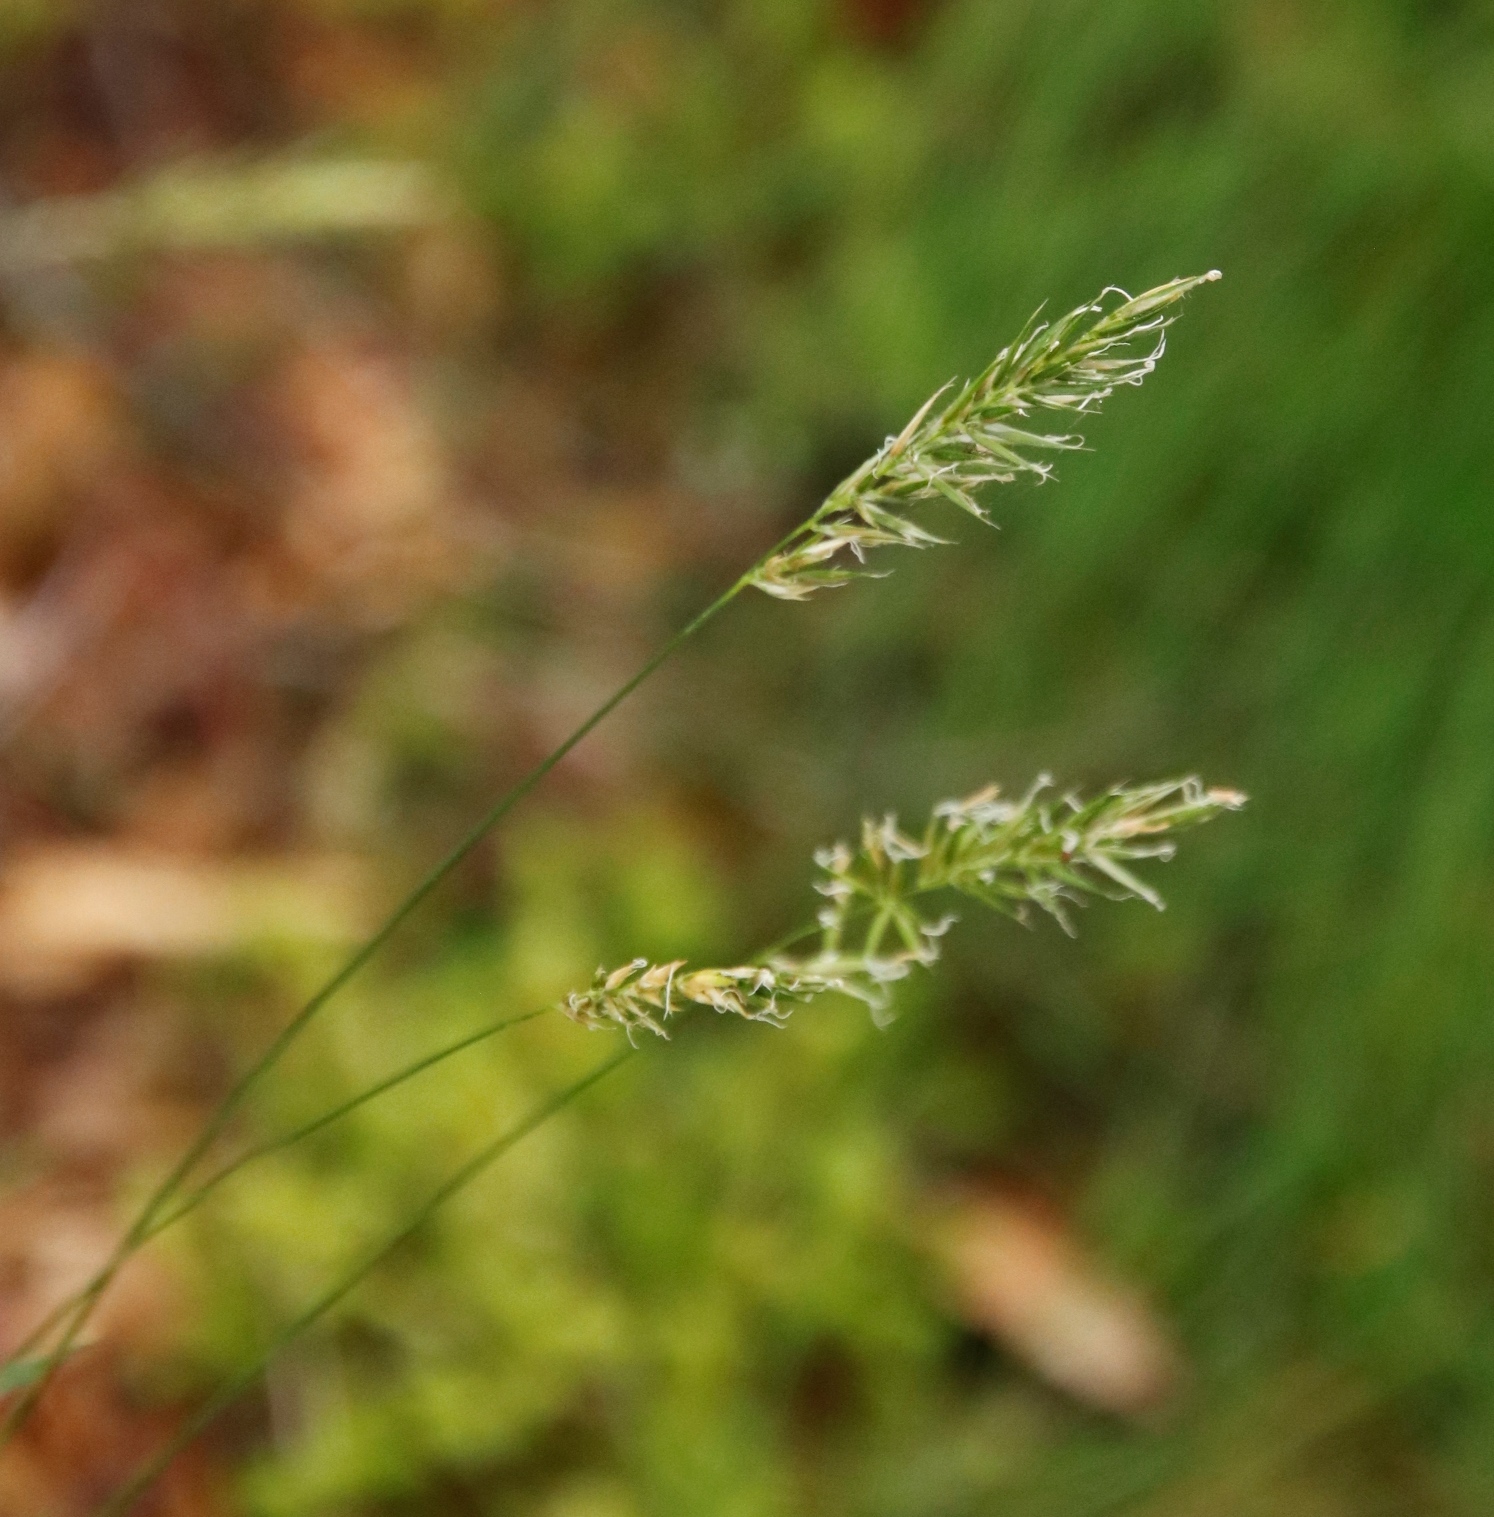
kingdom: Plantae
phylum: Tracheophyta
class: Liliopsida
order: Poales
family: Poaceae
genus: Anthoxanthum
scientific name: Anthoxanthum odoratum
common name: Sweet vernalgrass
